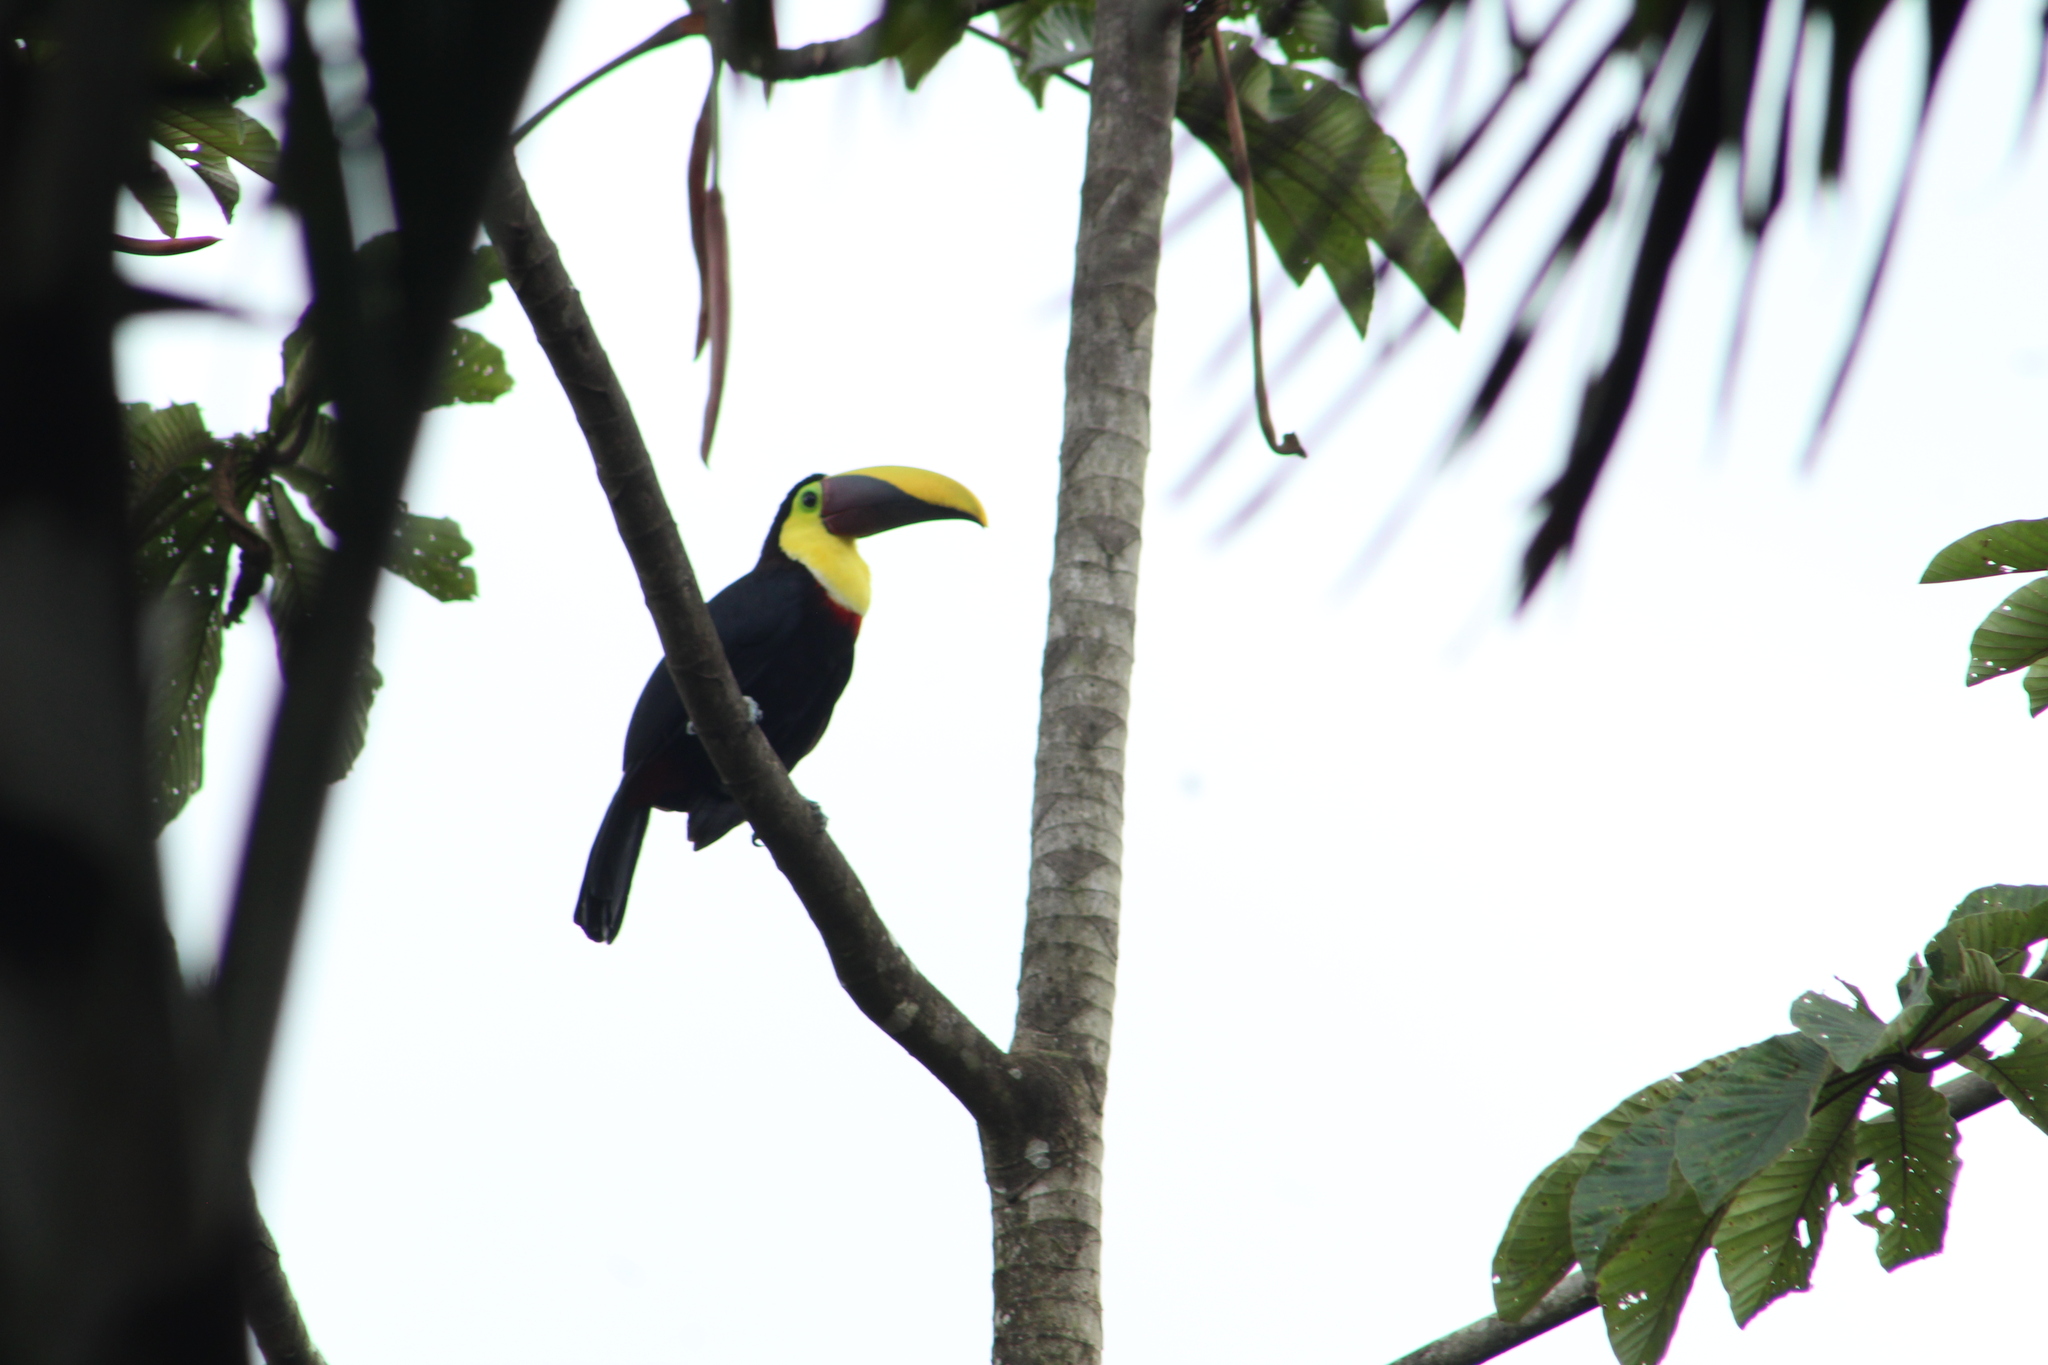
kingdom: Animalia
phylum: Chordata
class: Aves
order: Piciformes
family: Ramphastidae
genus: Ramphastos
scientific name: Ramphastos ambiguus
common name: Yellow-throated toucan
